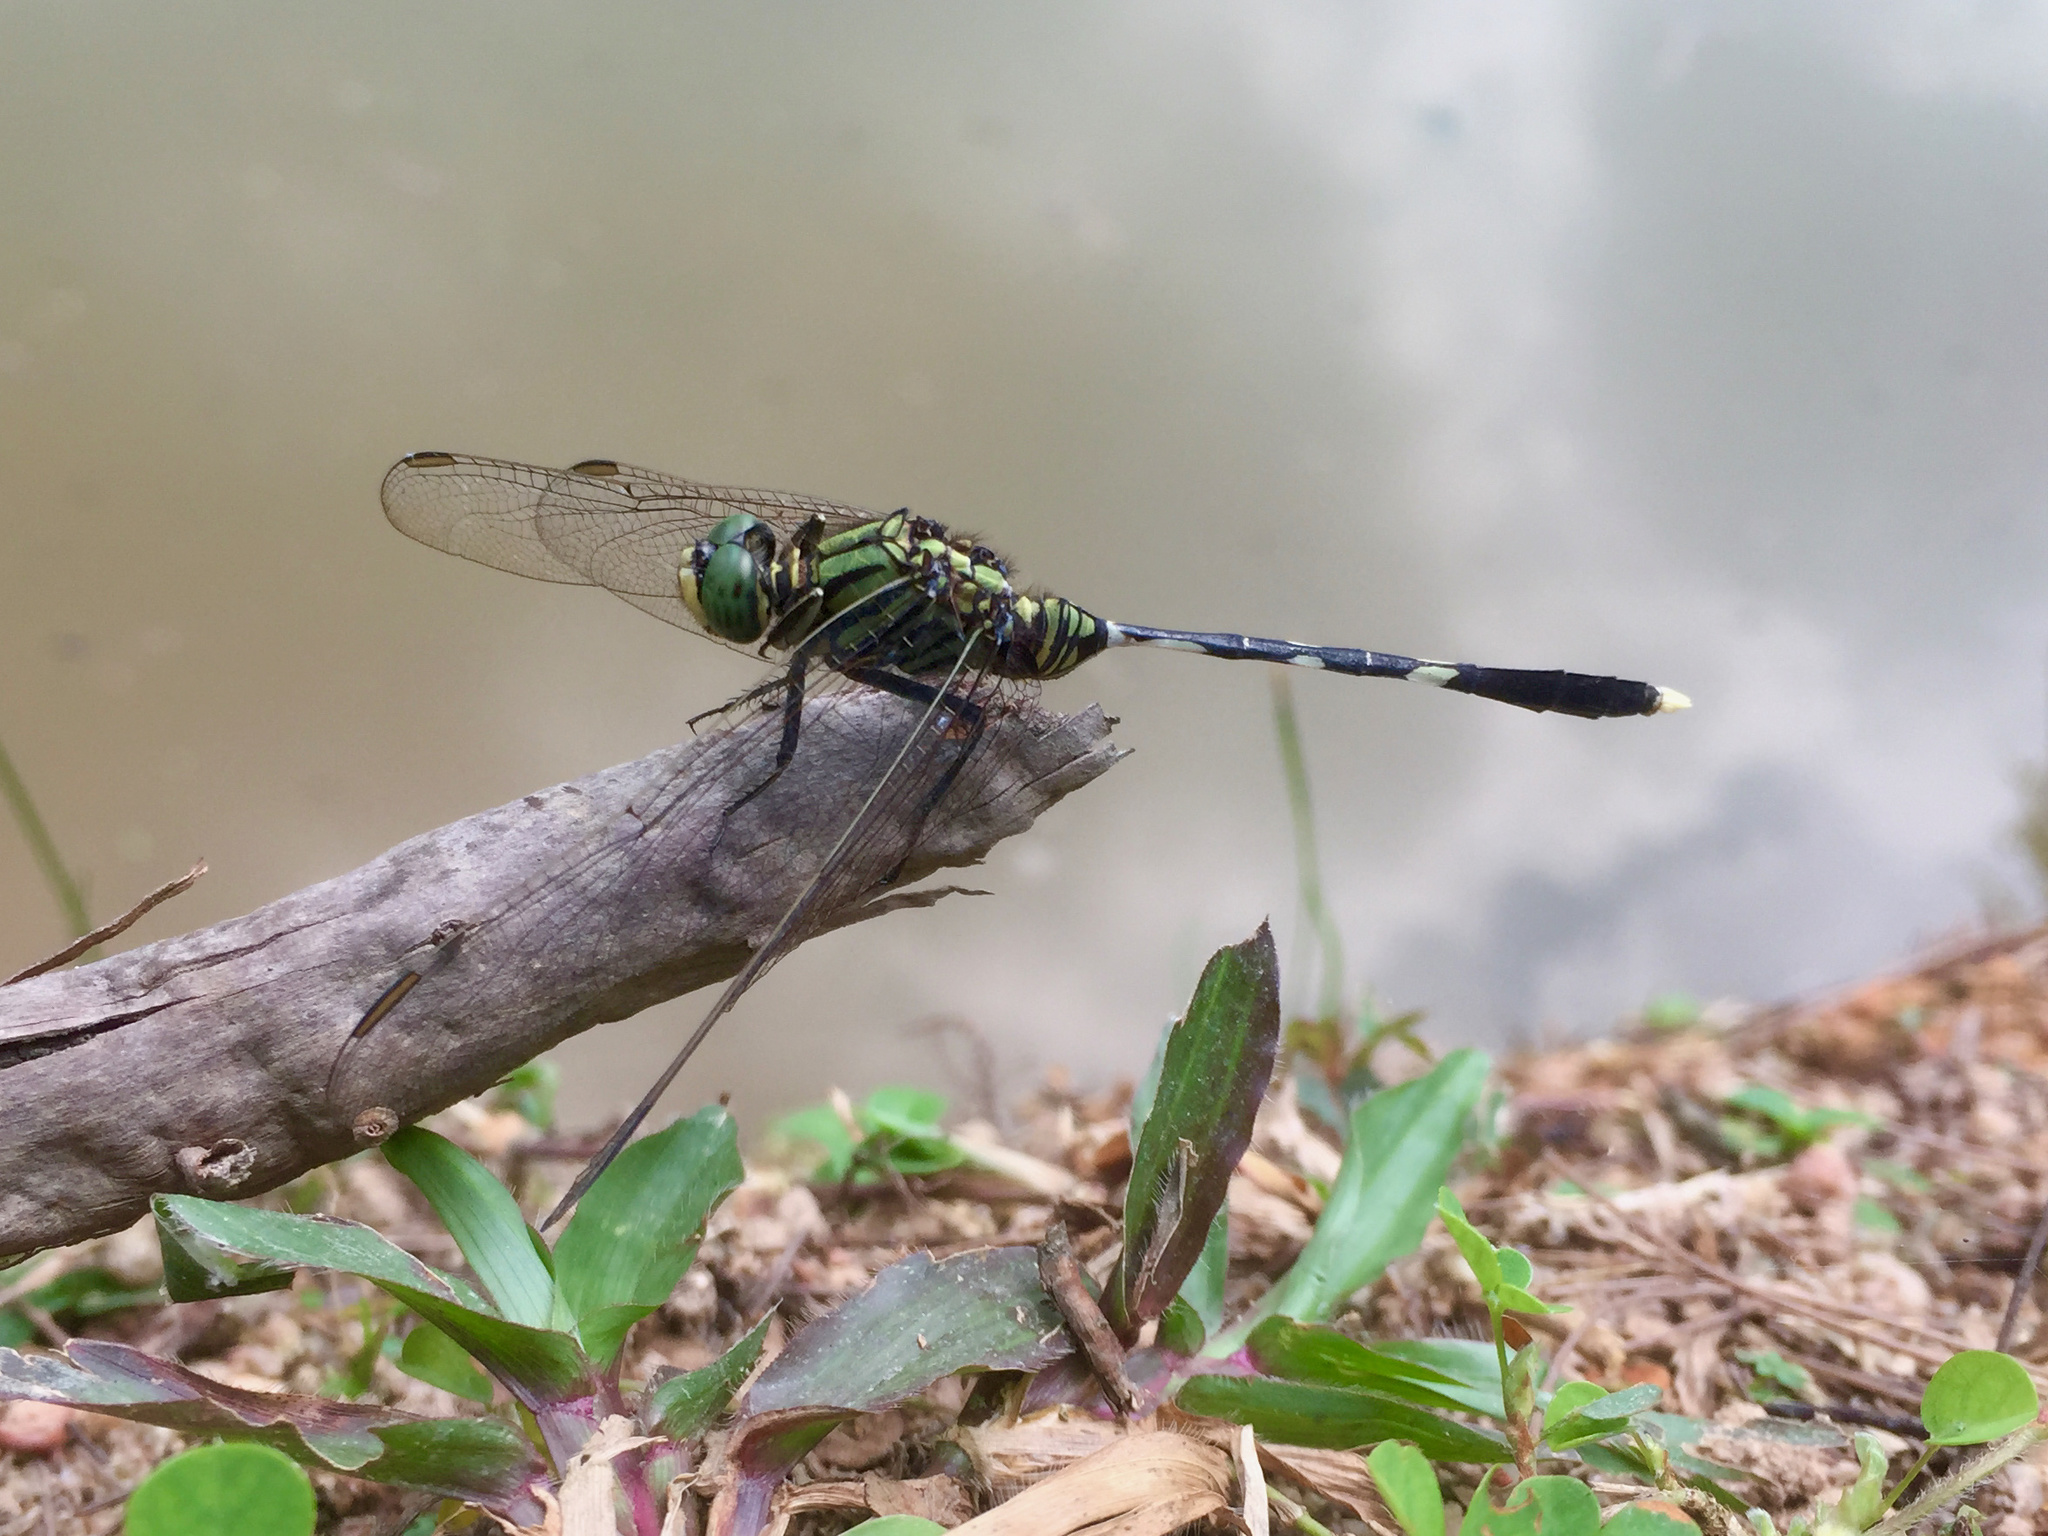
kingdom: Animalia
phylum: Arthropoda
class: Insecta
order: Odonata
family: Libellulidae
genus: Orthetrum
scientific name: Orthetrum sabina
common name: Slender skimmer
